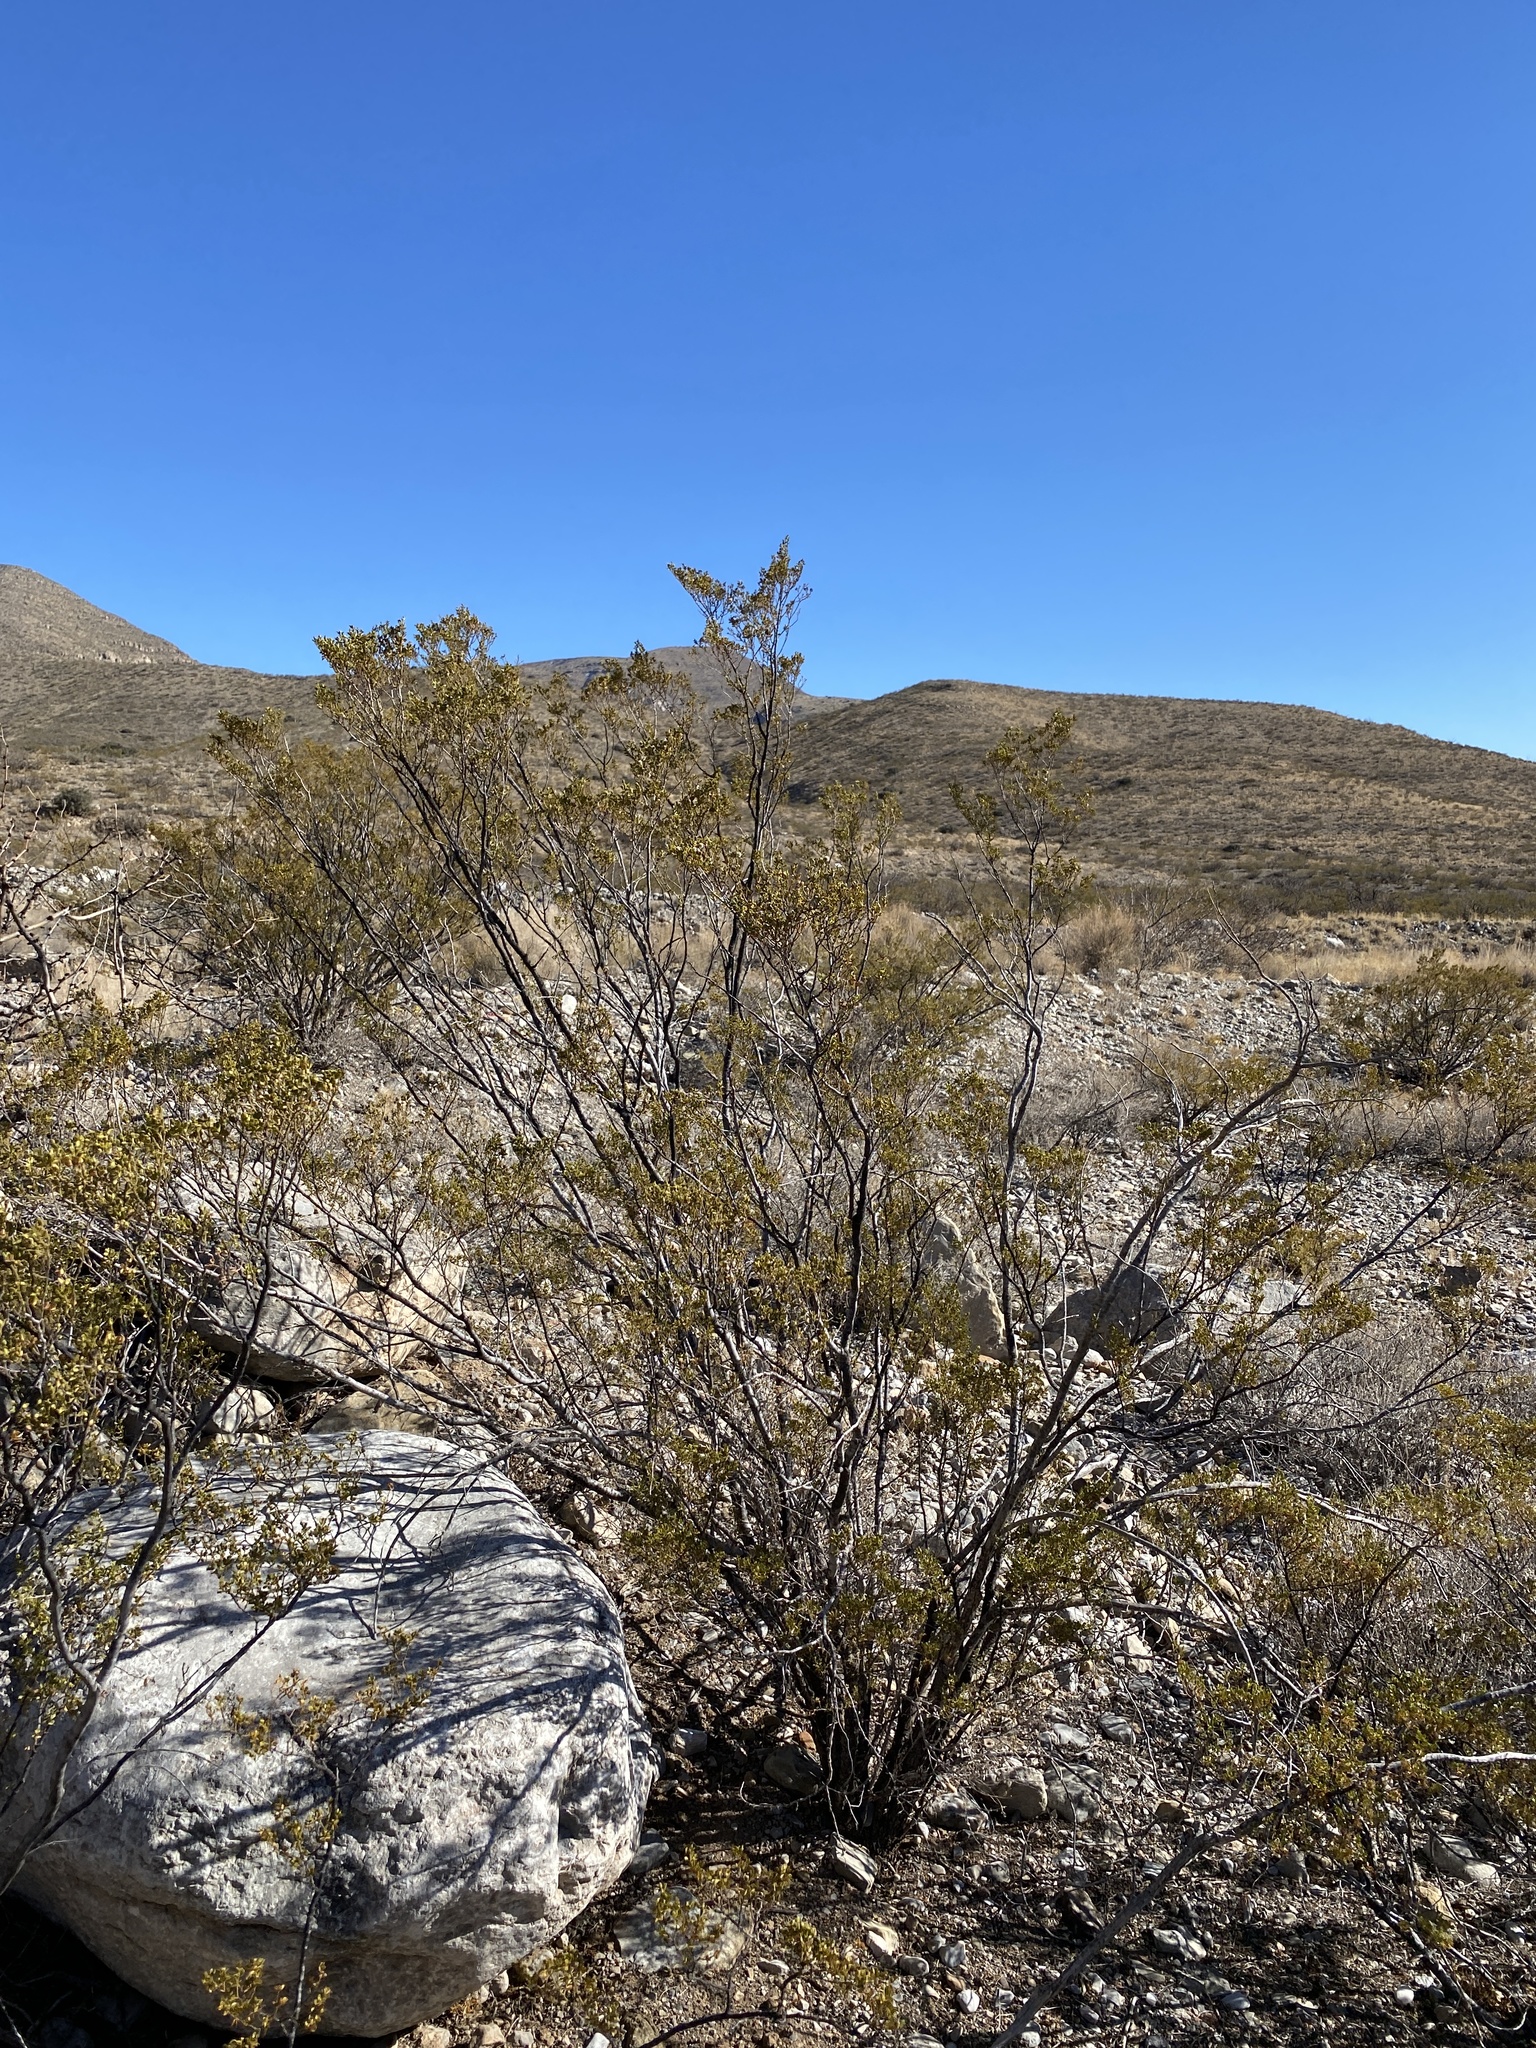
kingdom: Plantae
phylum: Tracheophyta
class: Magnoliopsida
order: Zygophyllales
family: Zygophyllaceae
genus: Larrea
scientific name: Larrea tridentata
